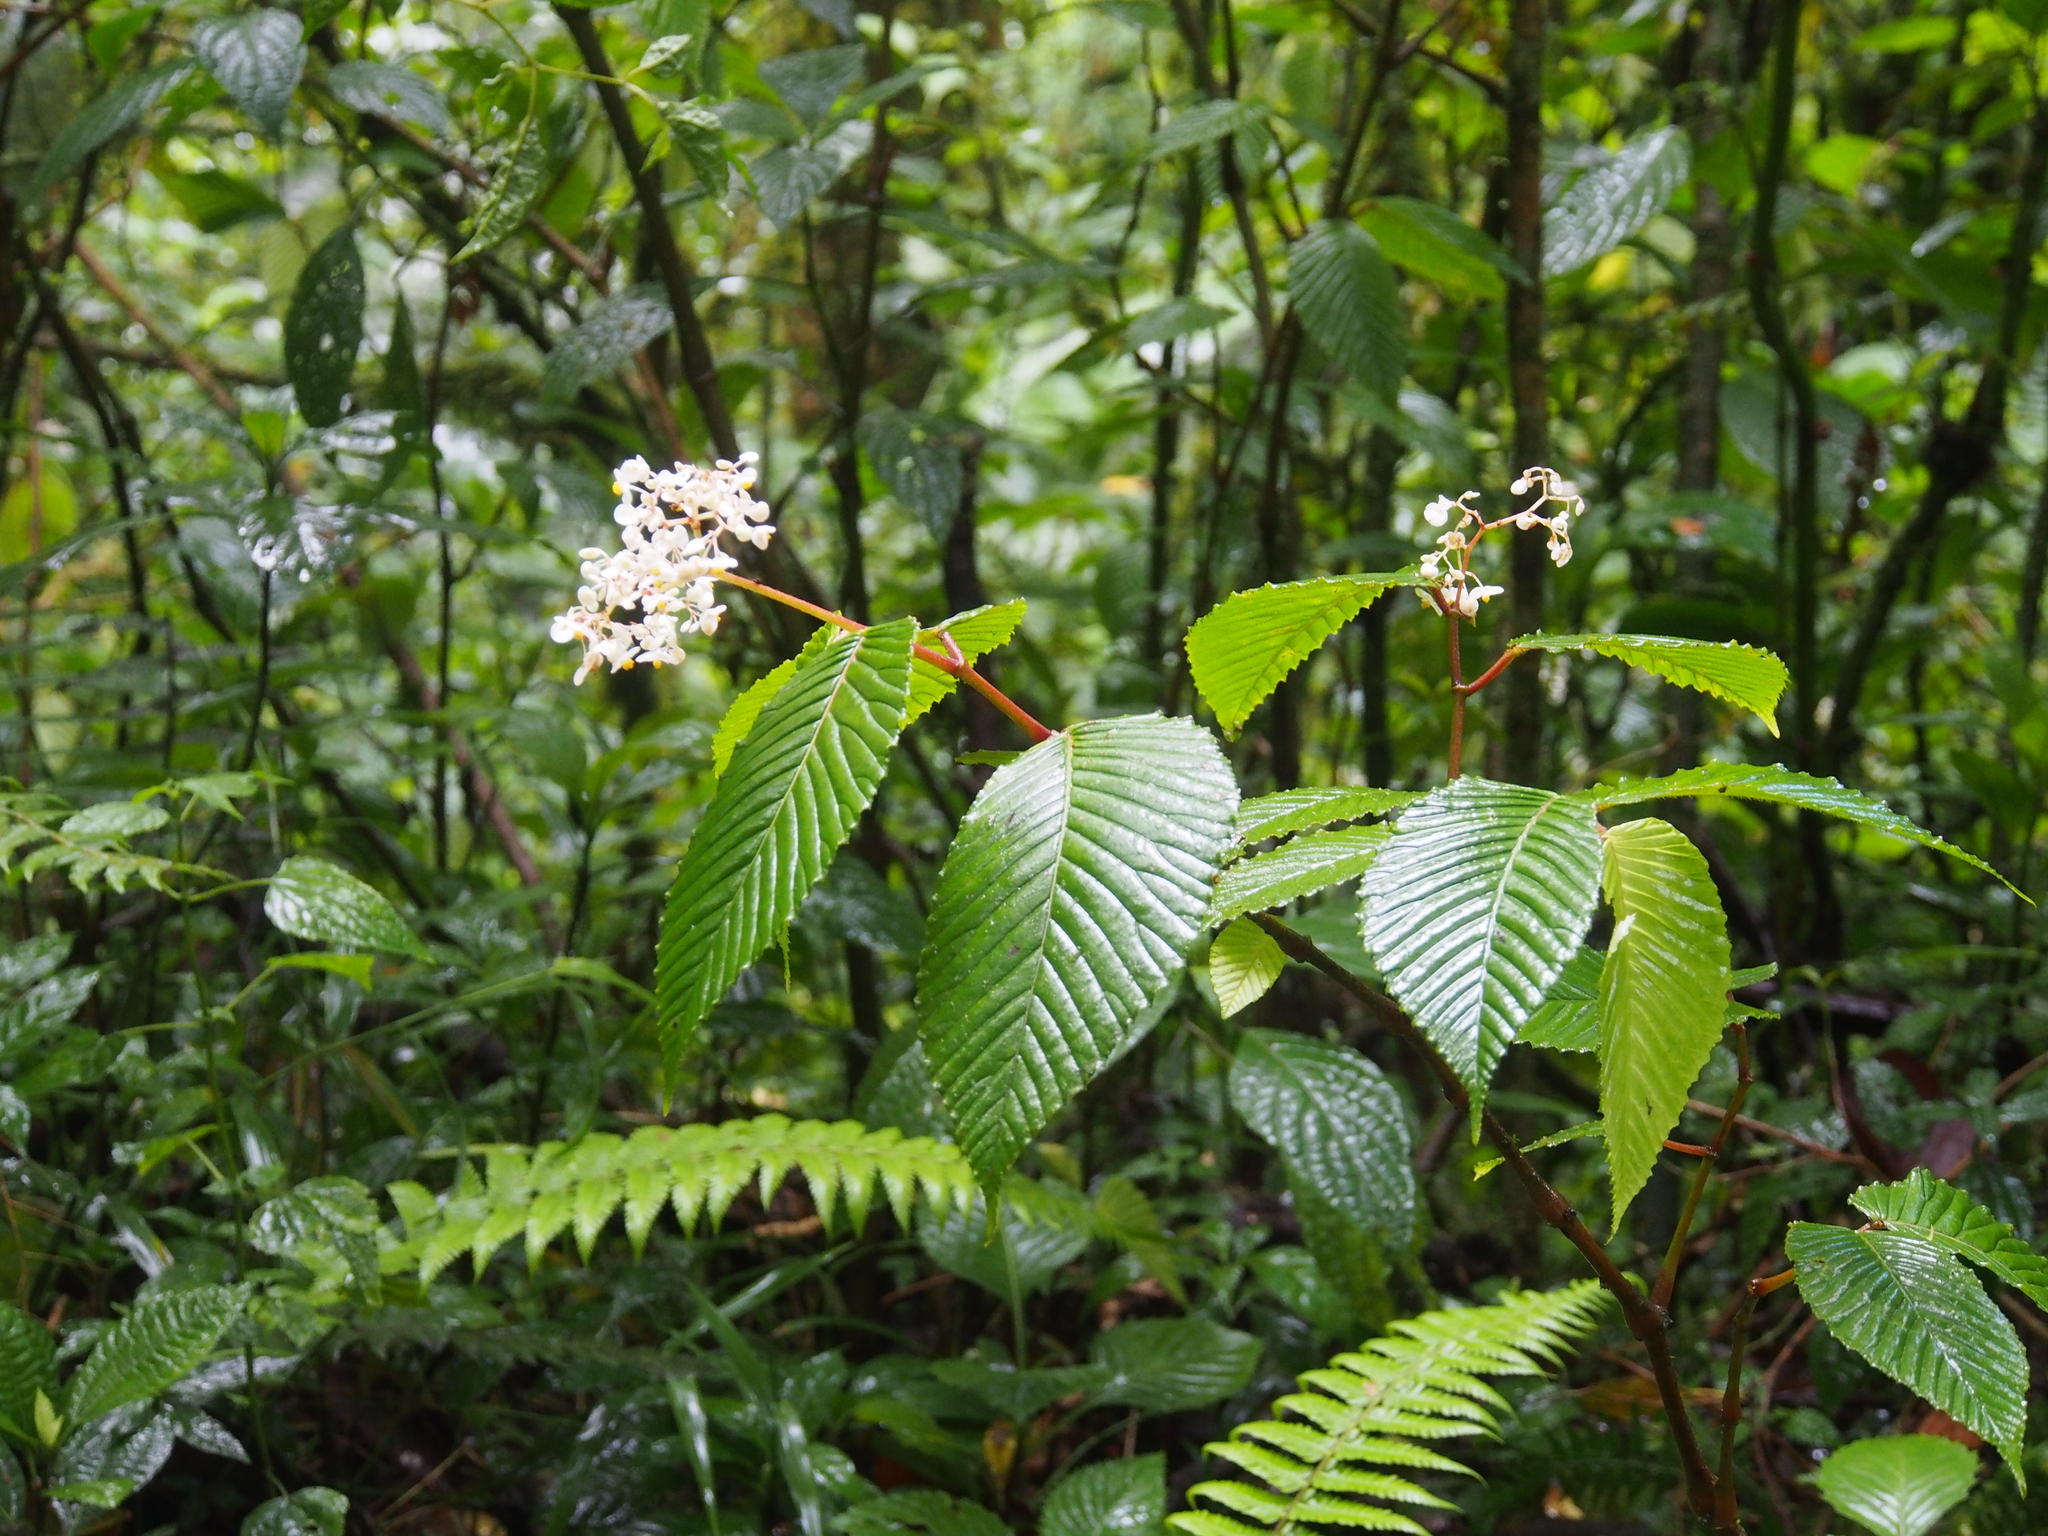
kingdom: Plantae
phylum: Tracheophyta
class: Magnoliopsida
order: Cucurbitales
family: Begoniaceae
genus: Begonia
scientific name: Begonia cooperi
